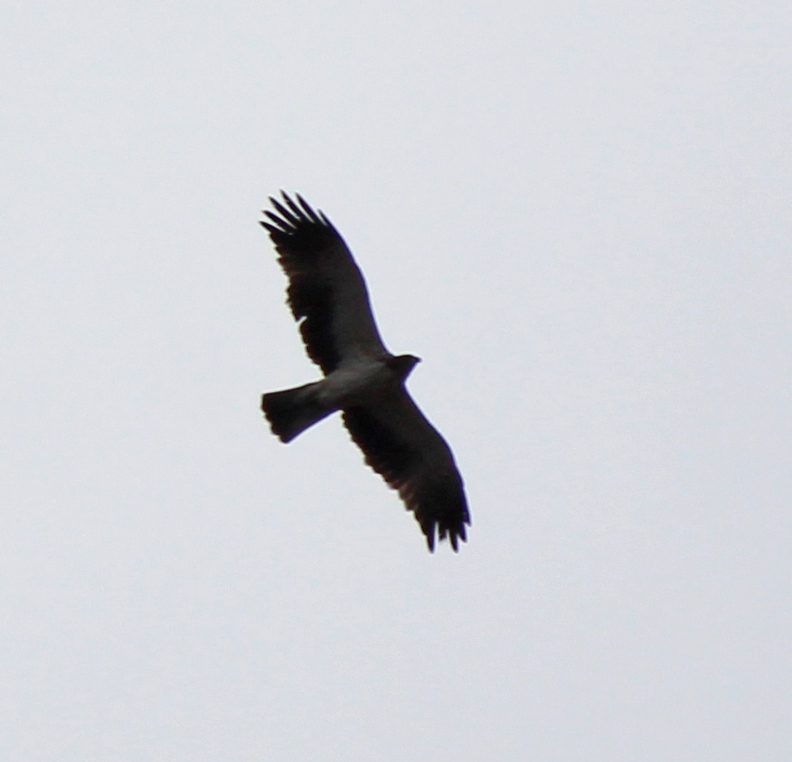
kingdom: Animalia
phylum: Chordata
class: Aves
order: Accipitriformes
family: Accipitridae
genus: Hieraaetus
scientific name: Hieraaetus pennatus
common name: Booted eagle
